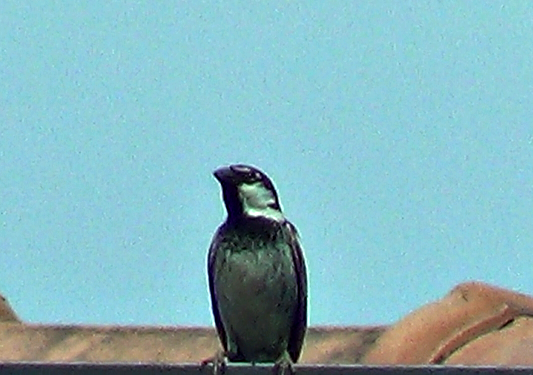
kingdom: Animalia
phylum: Chordata
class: Aves
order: Passeriformes
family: Passeridae
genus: Passer
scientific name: Passer italiae
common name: Italian sparrow
